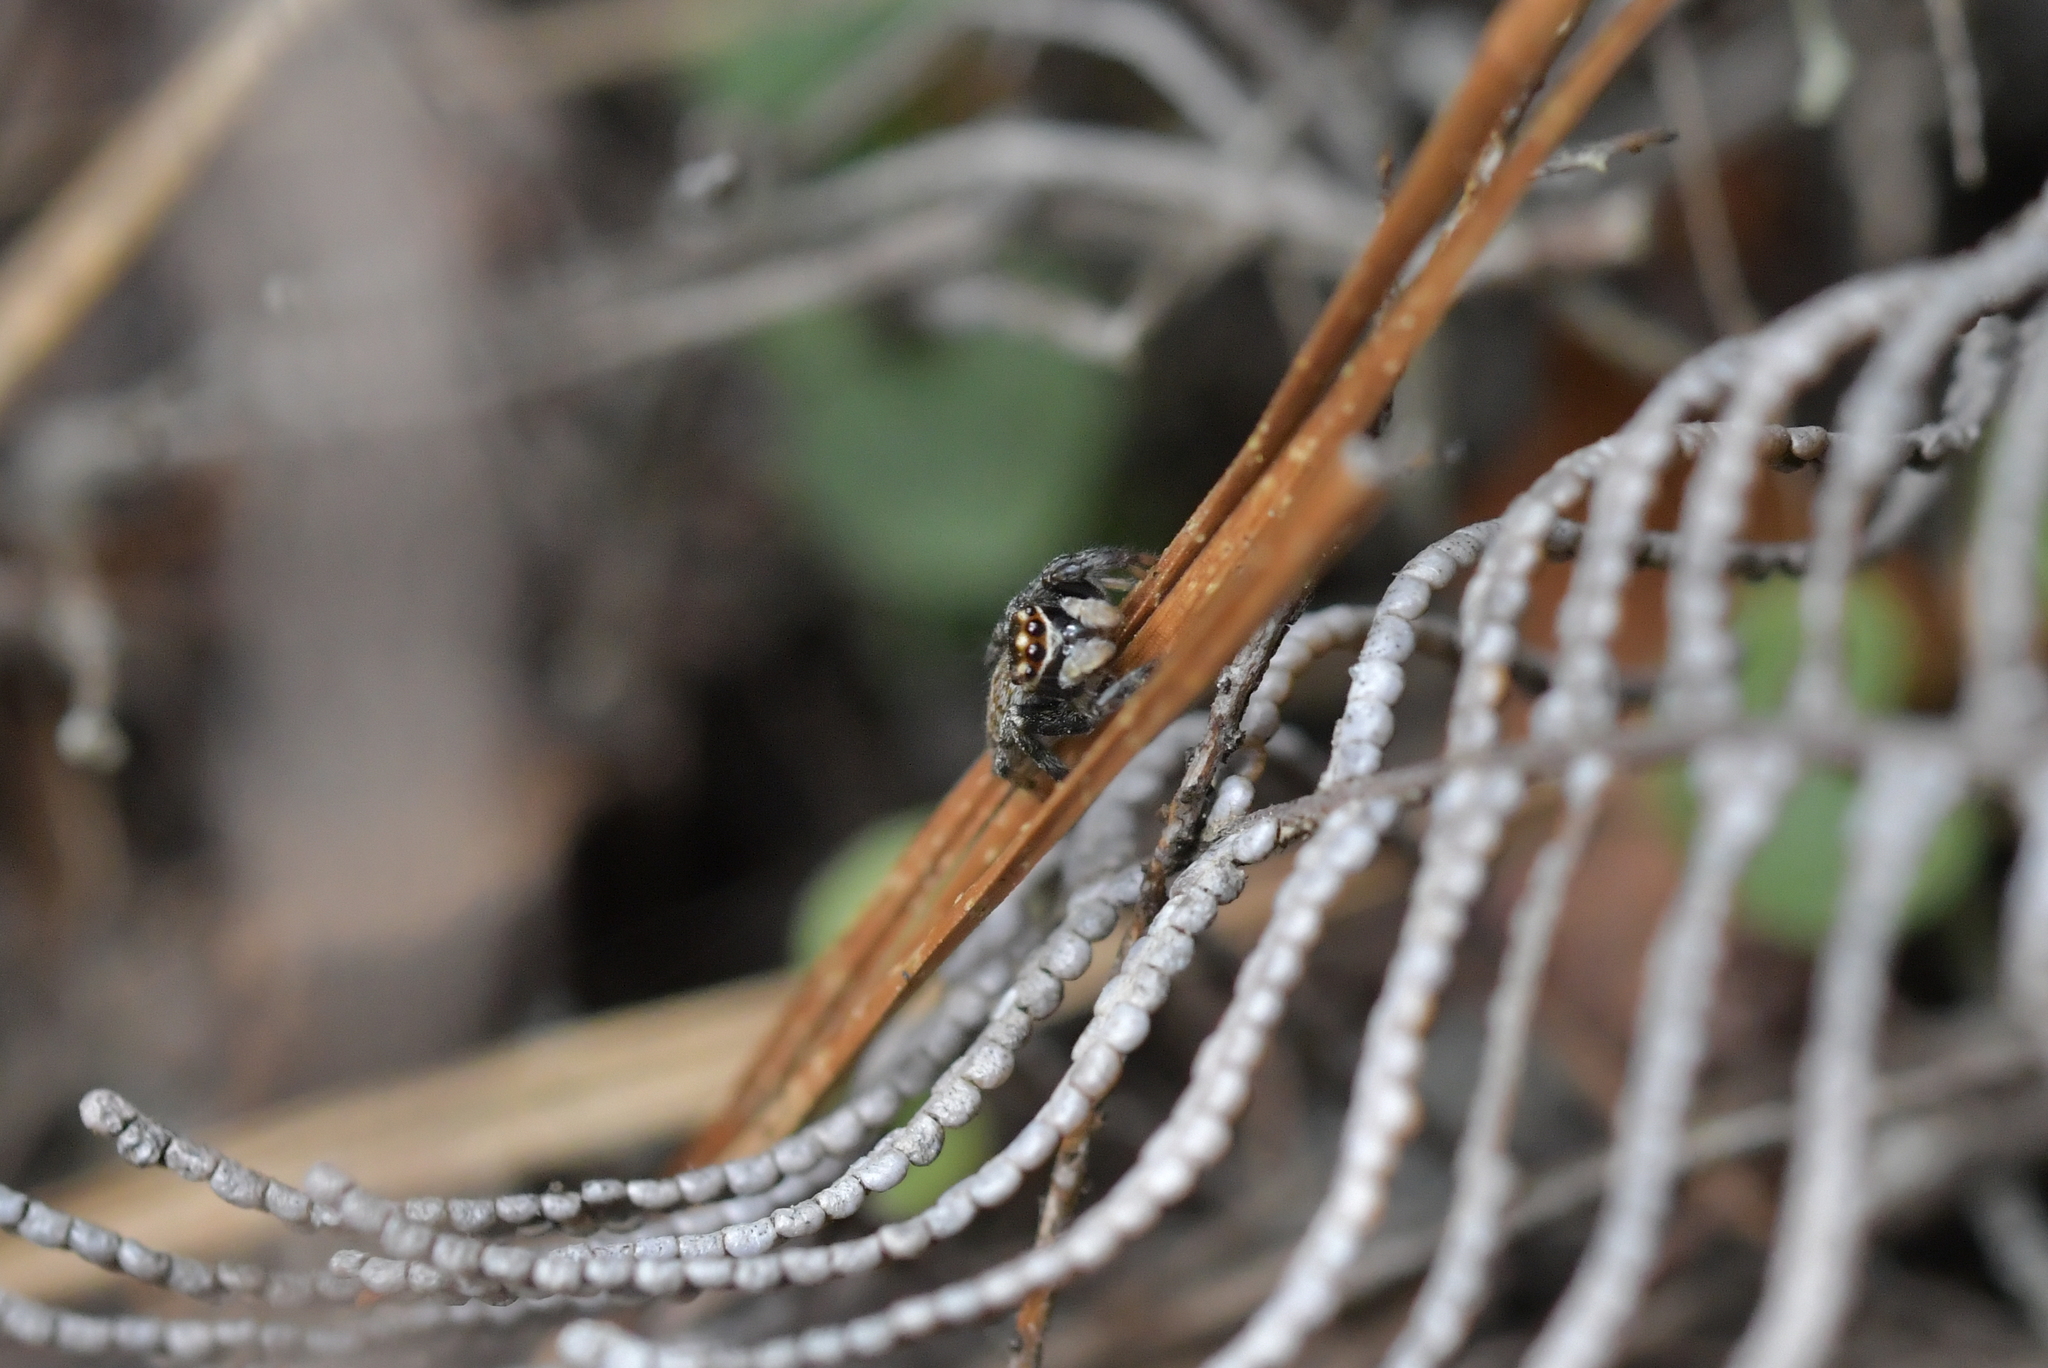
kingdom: Animalia
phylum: Arthropoda
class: Arachnida
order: Araneae
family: Salticidae
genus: Maratus
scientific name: Maratus griseus
